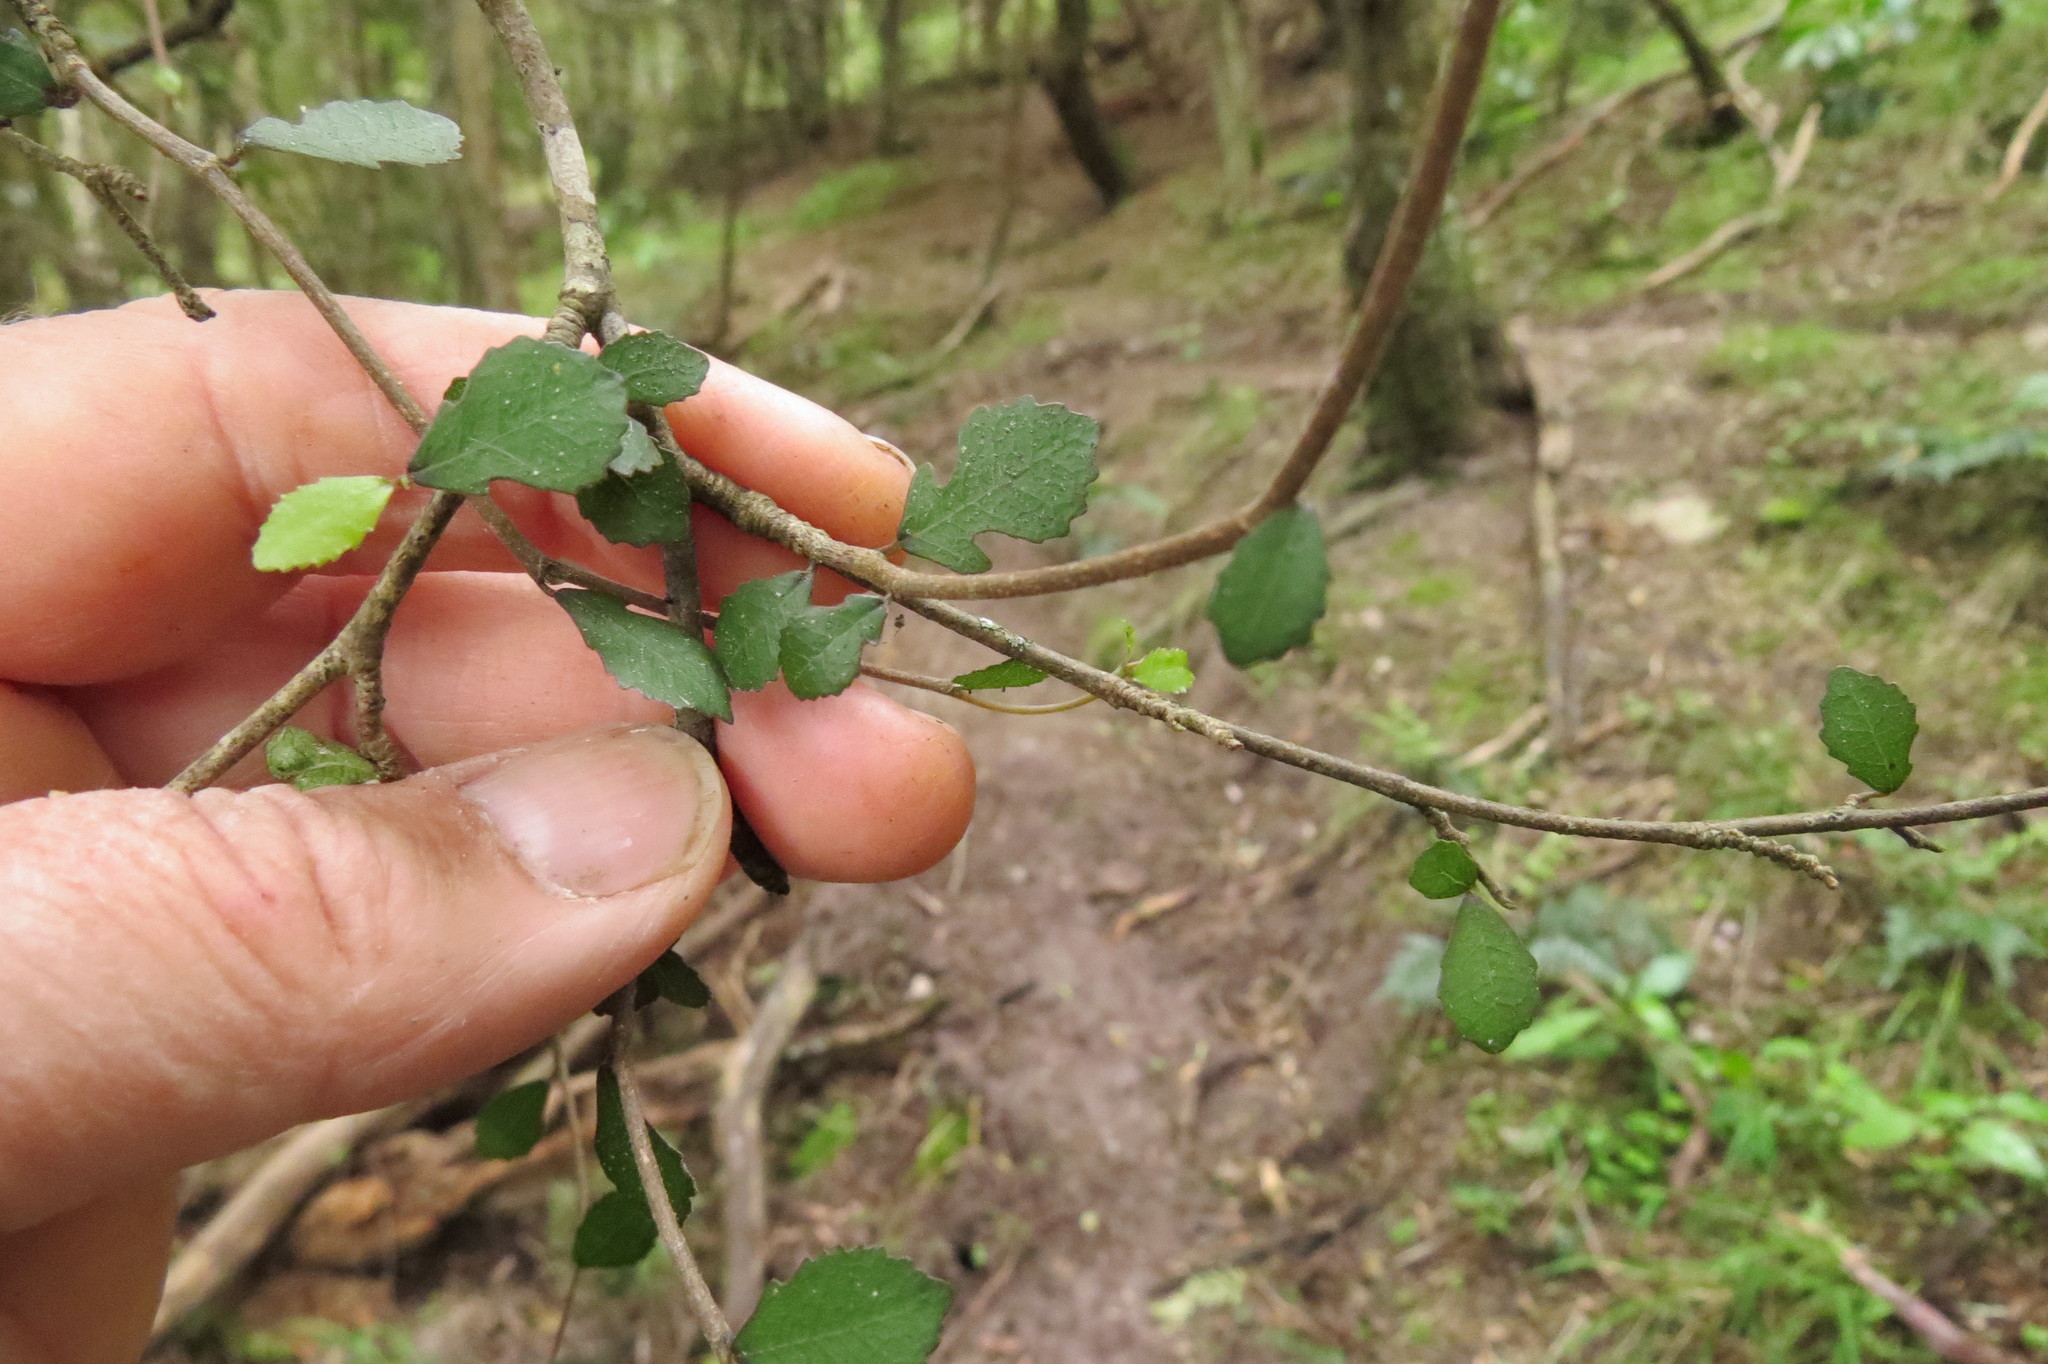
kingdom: Plantae
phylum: Tracheophyta
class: Magnoliopsida
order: Rosales
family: Moraceae
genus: Paratrophis
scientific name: Paratrophis microphylla
